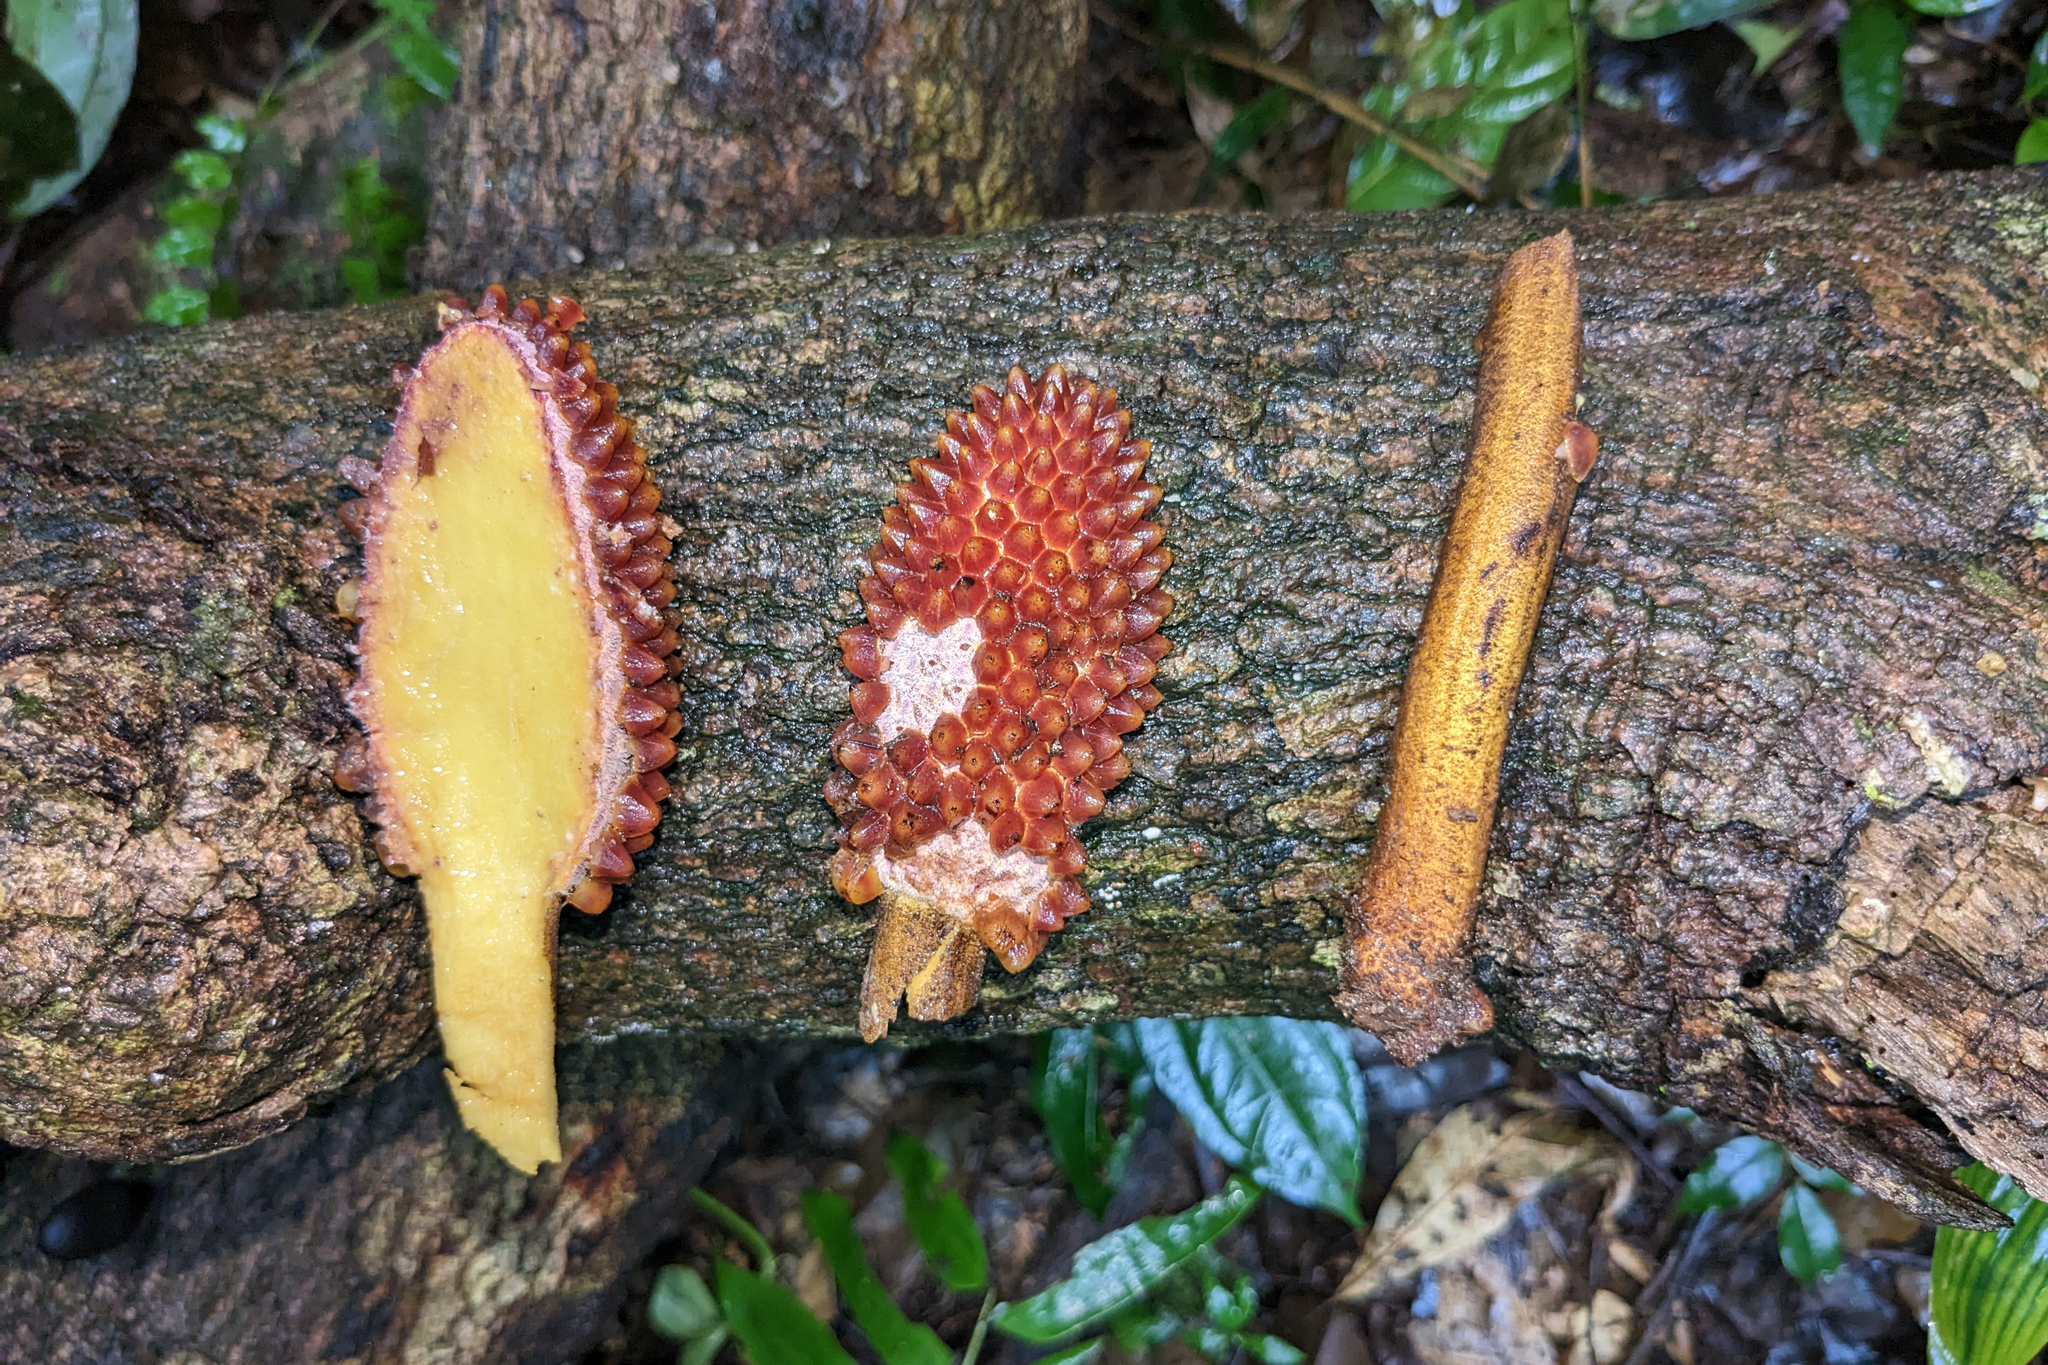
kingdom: Plantae
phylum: Tracheophyta
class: Magnoliopsida
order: Santalales
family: Balanophoraceae
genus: Helosis
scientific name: Helosis cayennensis
